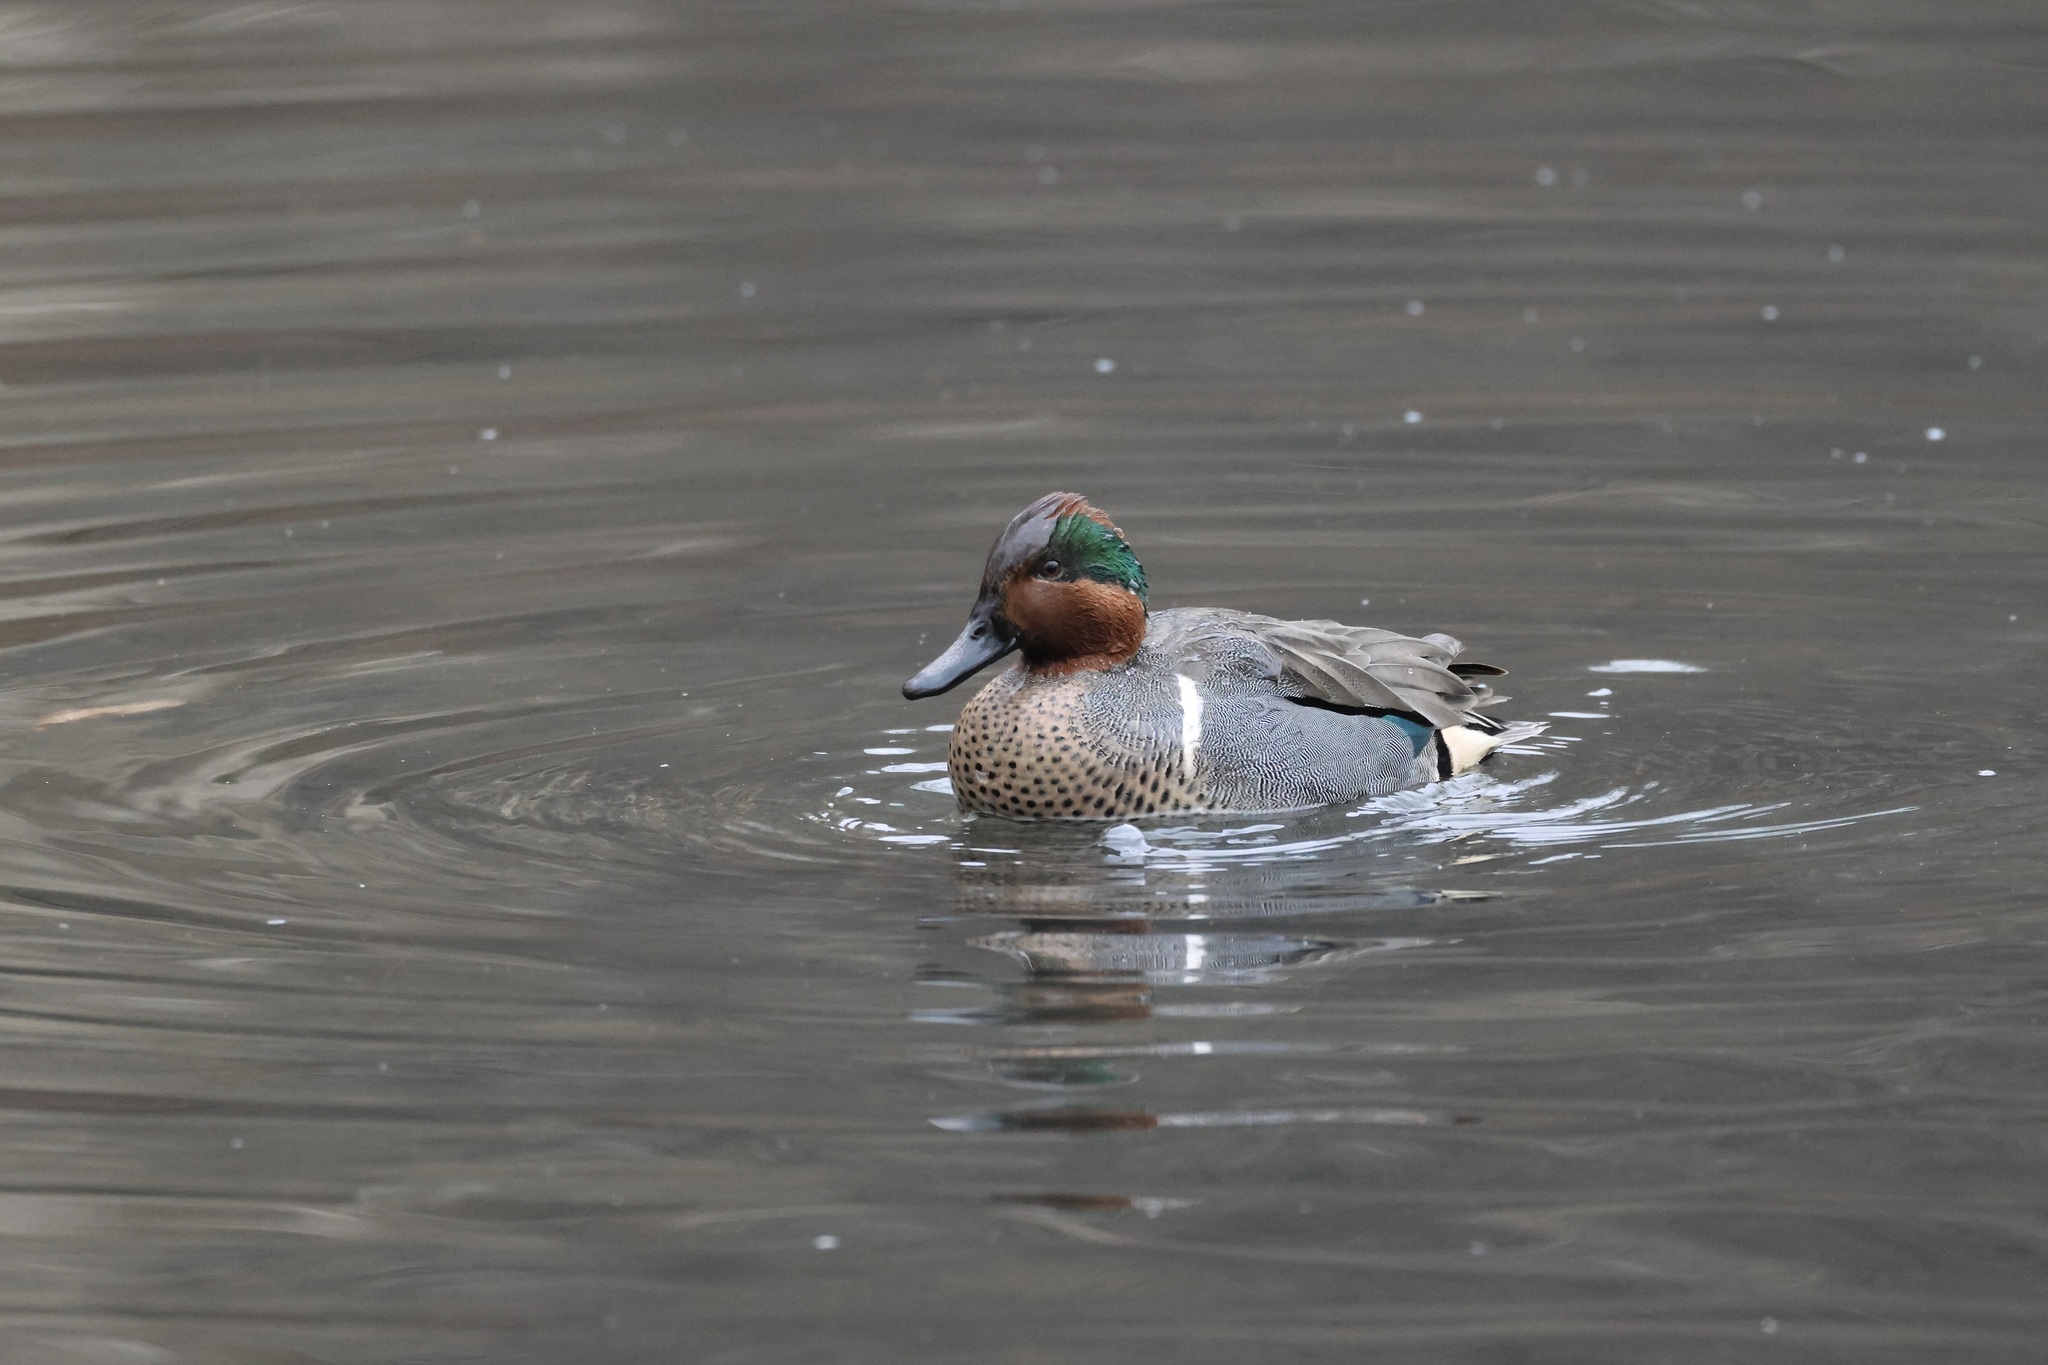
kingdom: Animalia
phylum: Chordata
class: Aves
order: Anseriformes
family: Anatidae
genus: Anas
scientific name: Anas crecca
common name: Eurasian teal
